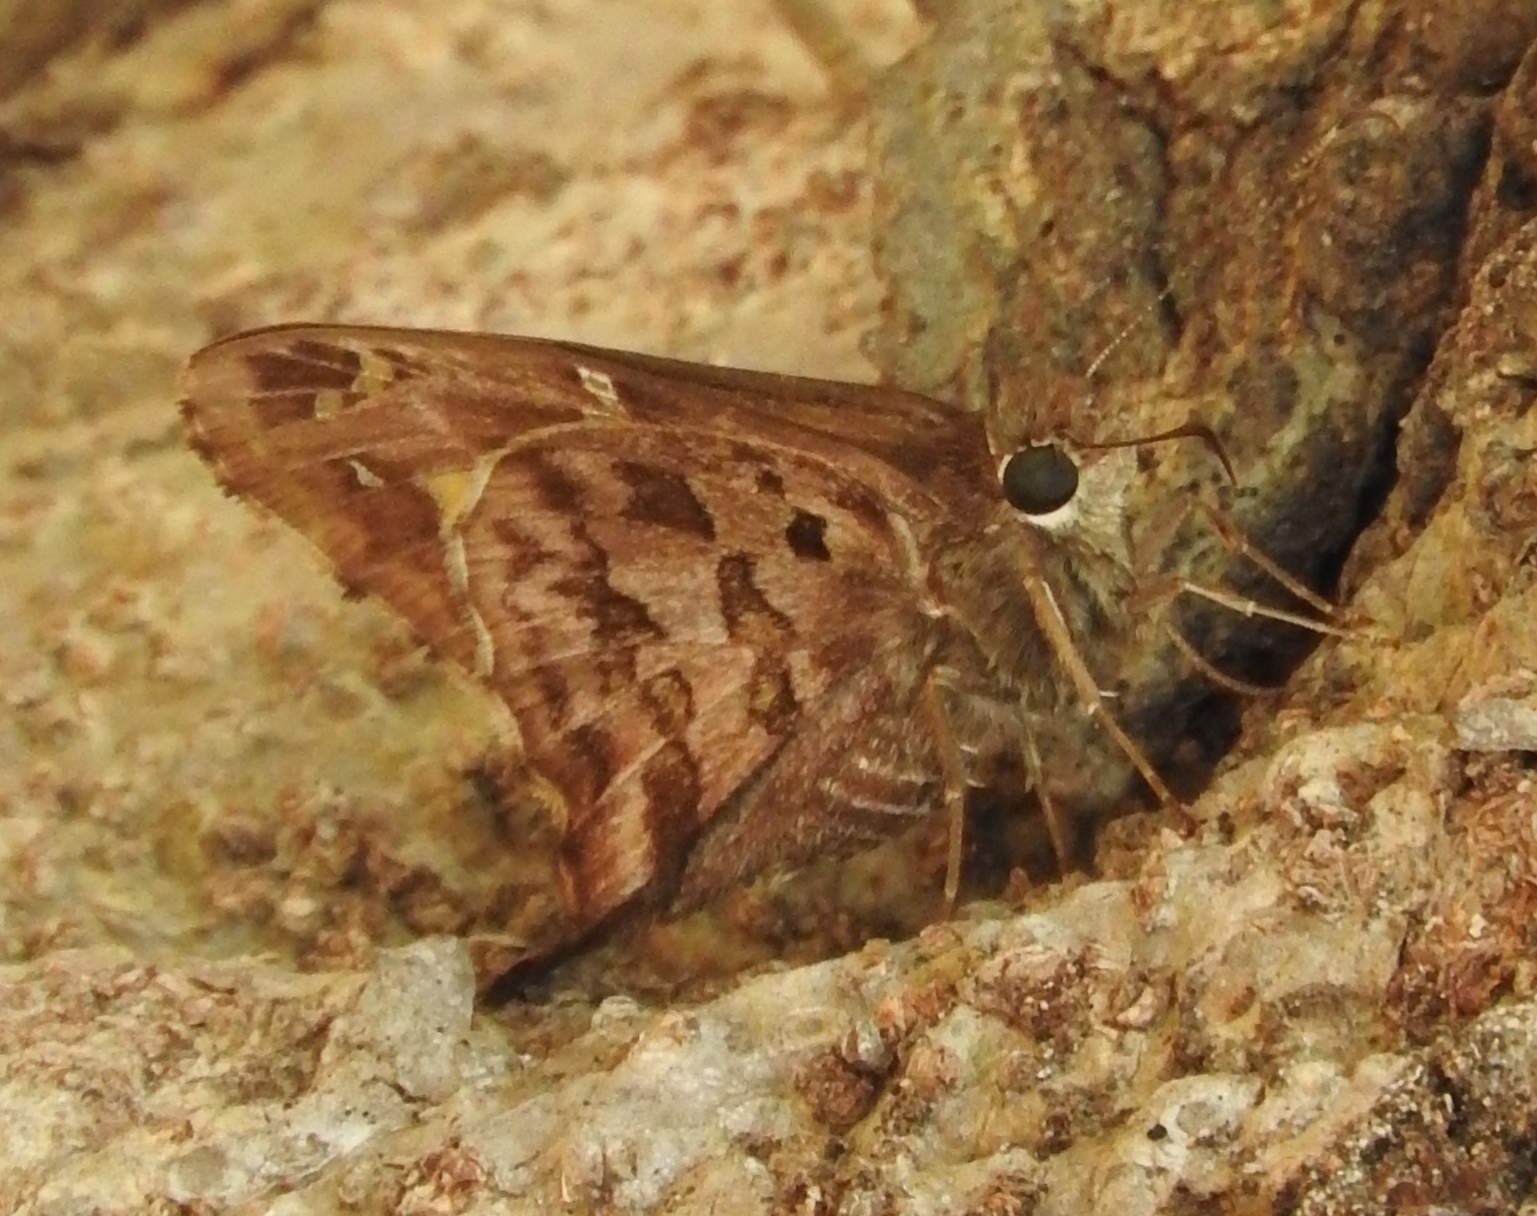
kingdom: Animalia
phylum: Arthropoda
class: Insecta
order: Lepidoptera
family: Hesperiidae
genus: Thorybes
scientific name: Thorybes
